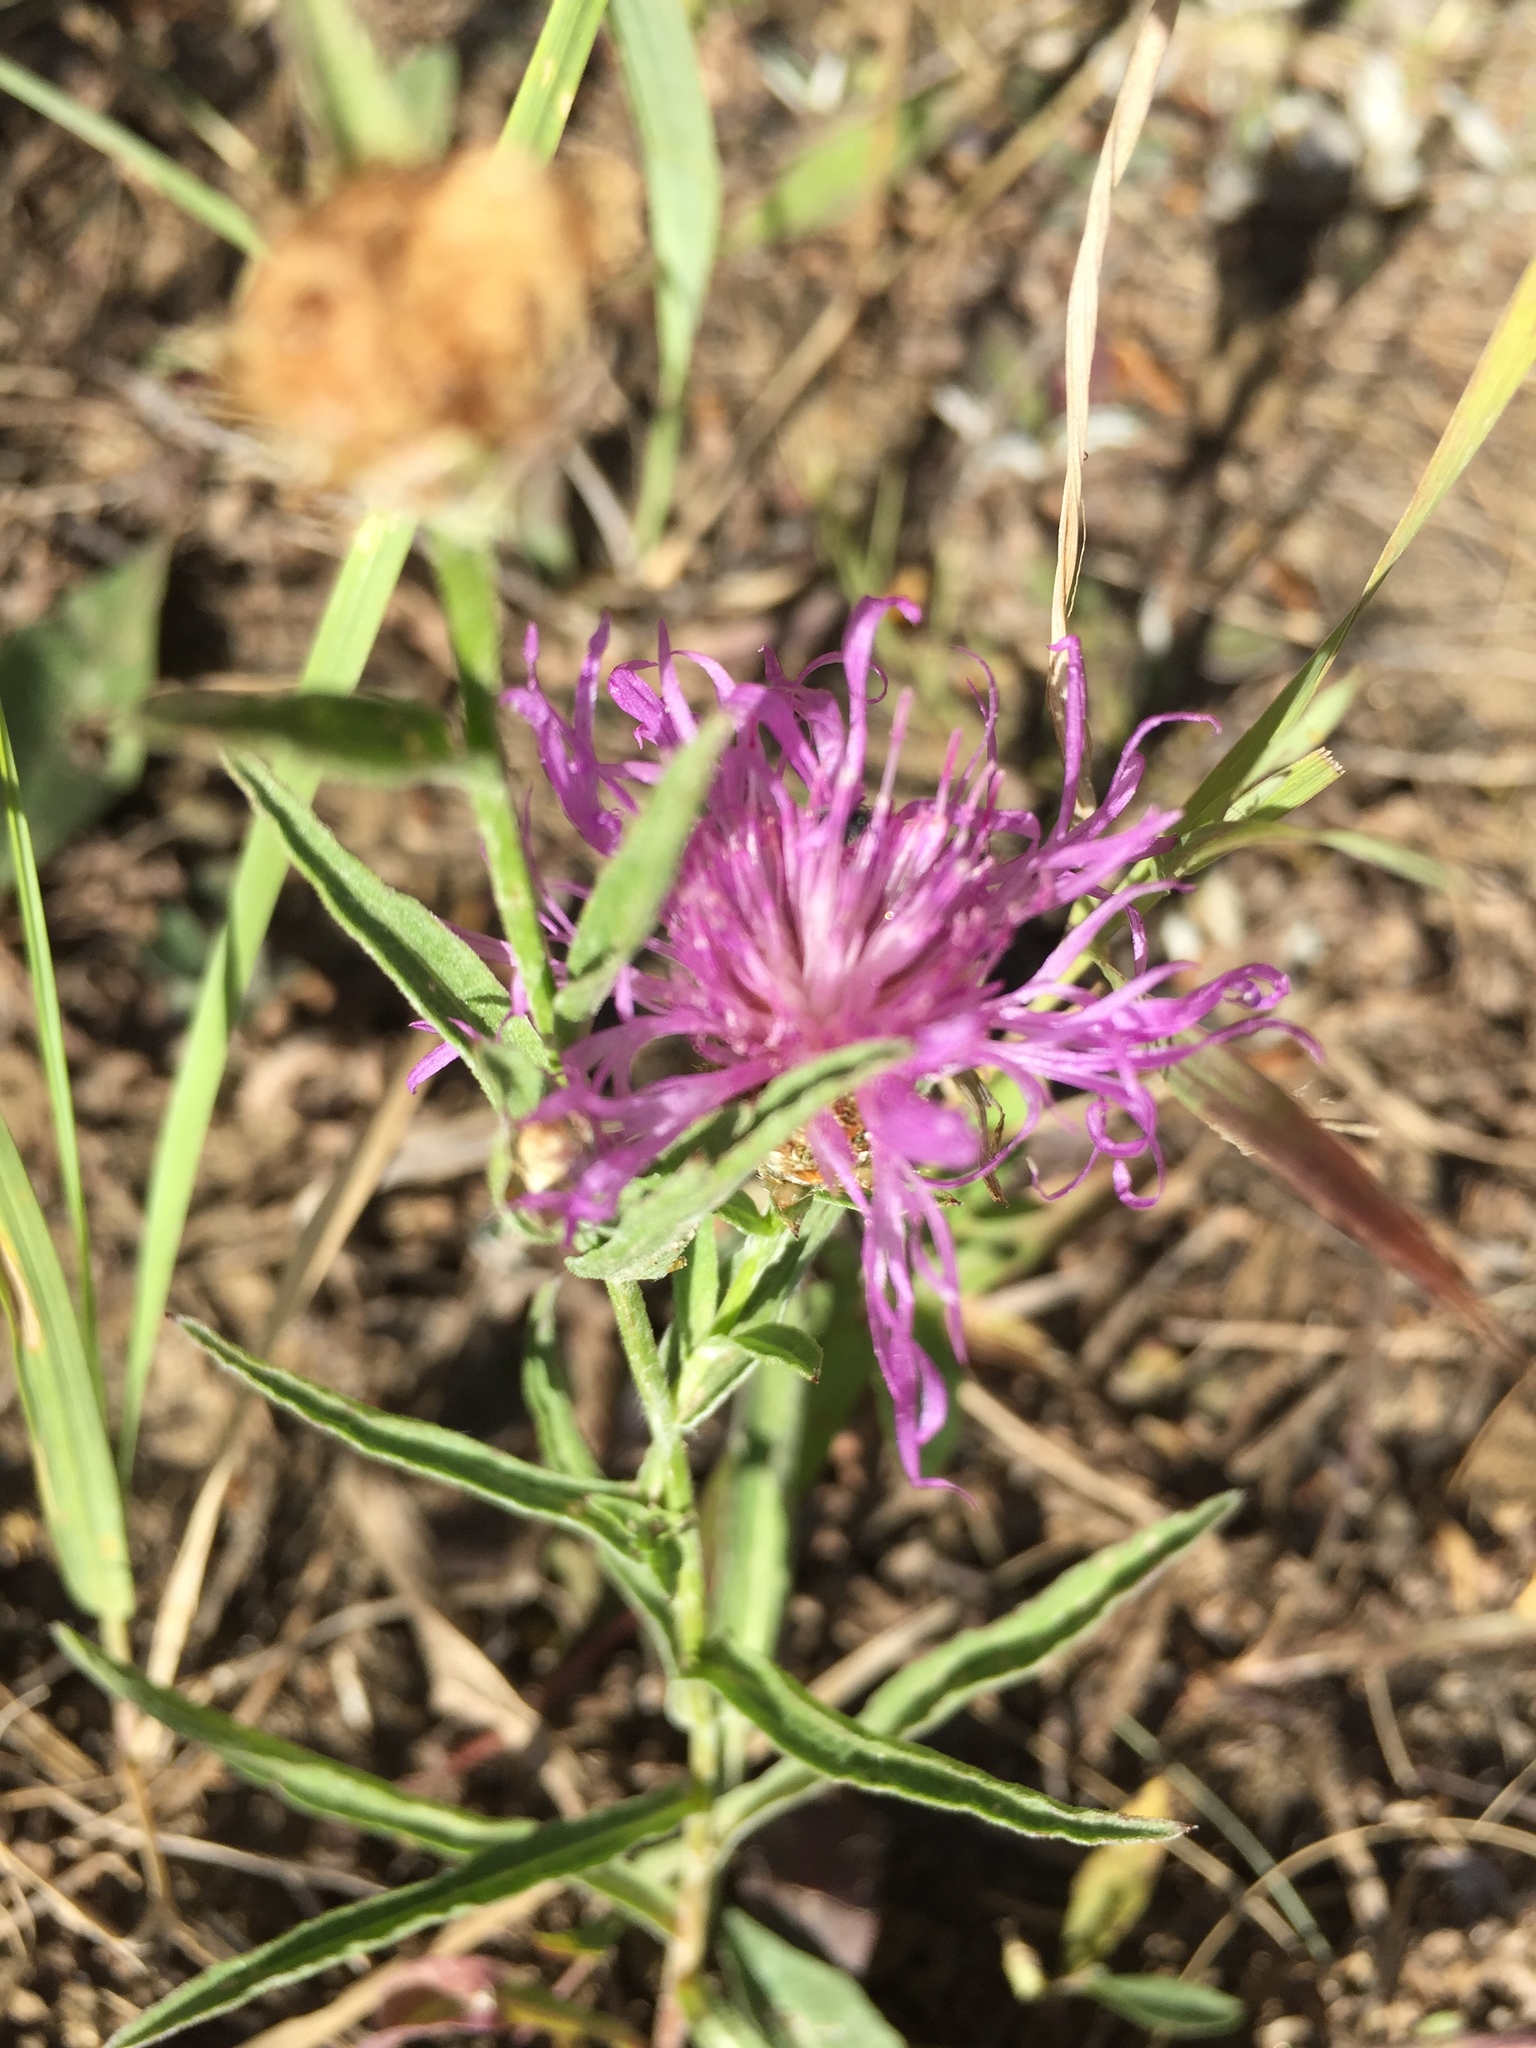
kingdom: Plantae
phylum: Tracheophyta
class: Magnoliopsida
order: Asterales
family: Asteraceae
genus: Centaurea
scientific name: Centaurea jacea
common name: Brown knapweed
